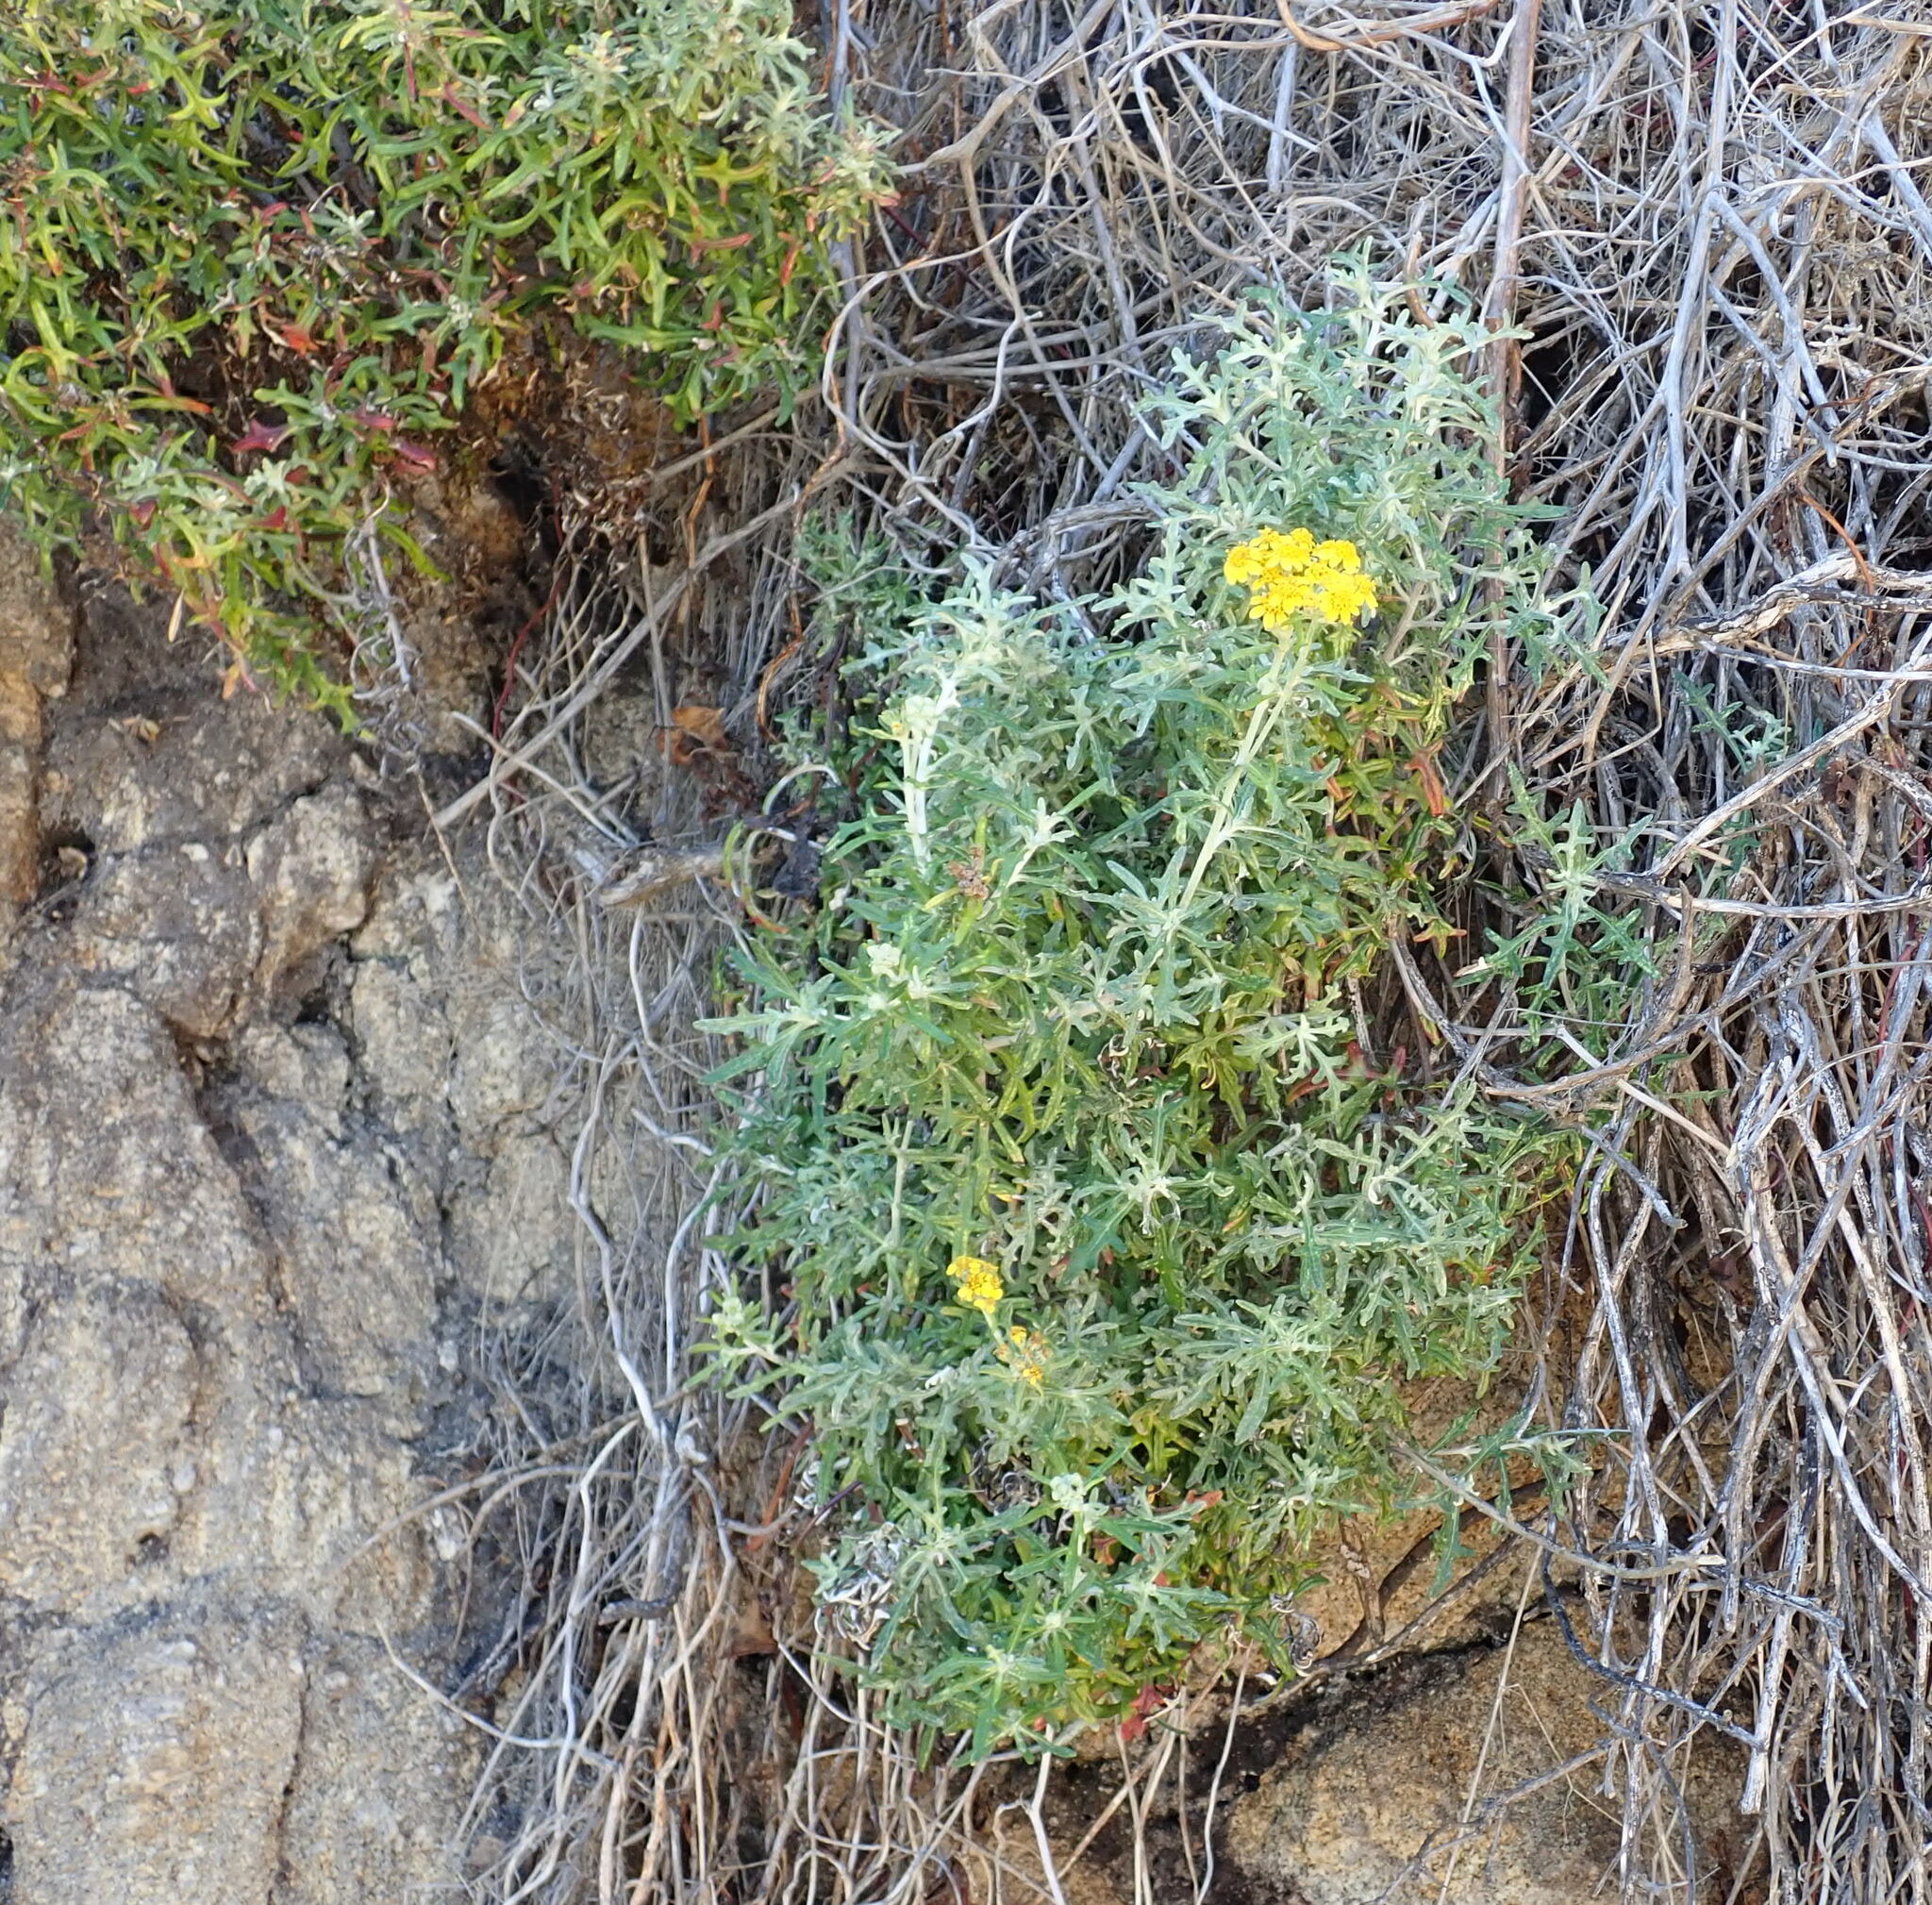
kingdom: Plantae
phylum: Tracheophyta
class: Magnoliopsida
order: Asterales
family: Asteraceae
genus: Eriophyllum
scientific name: Eriophyllum staechadifolium
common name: Lizardtail
